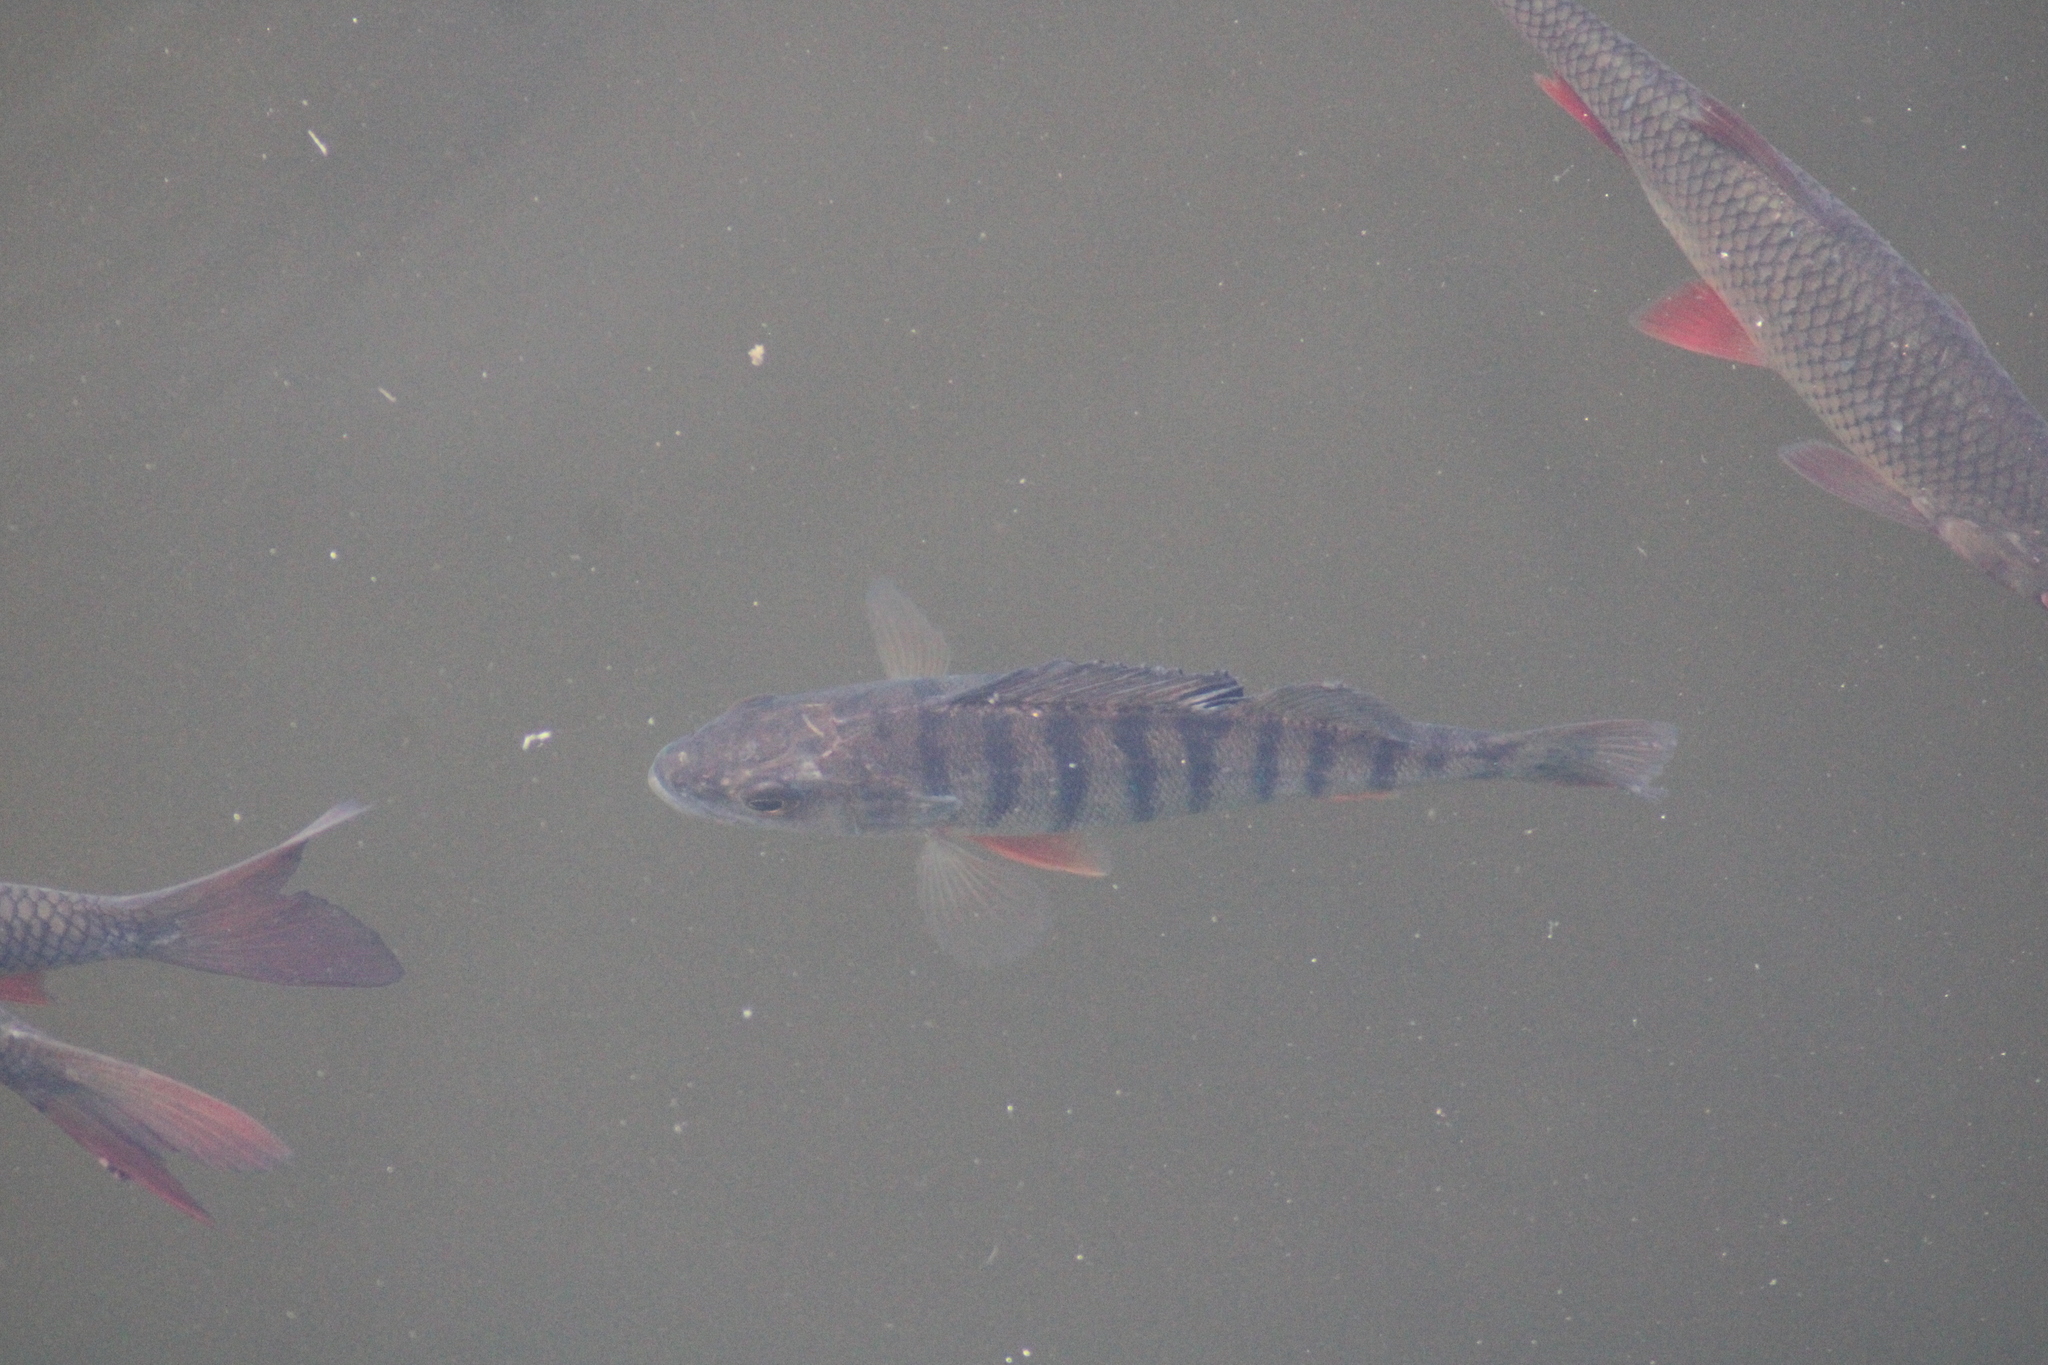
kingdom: Animalia
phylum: Chordata
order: Perciformes
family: Percidae
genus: Perca
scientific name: Perca fluviatilis
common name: Perch
